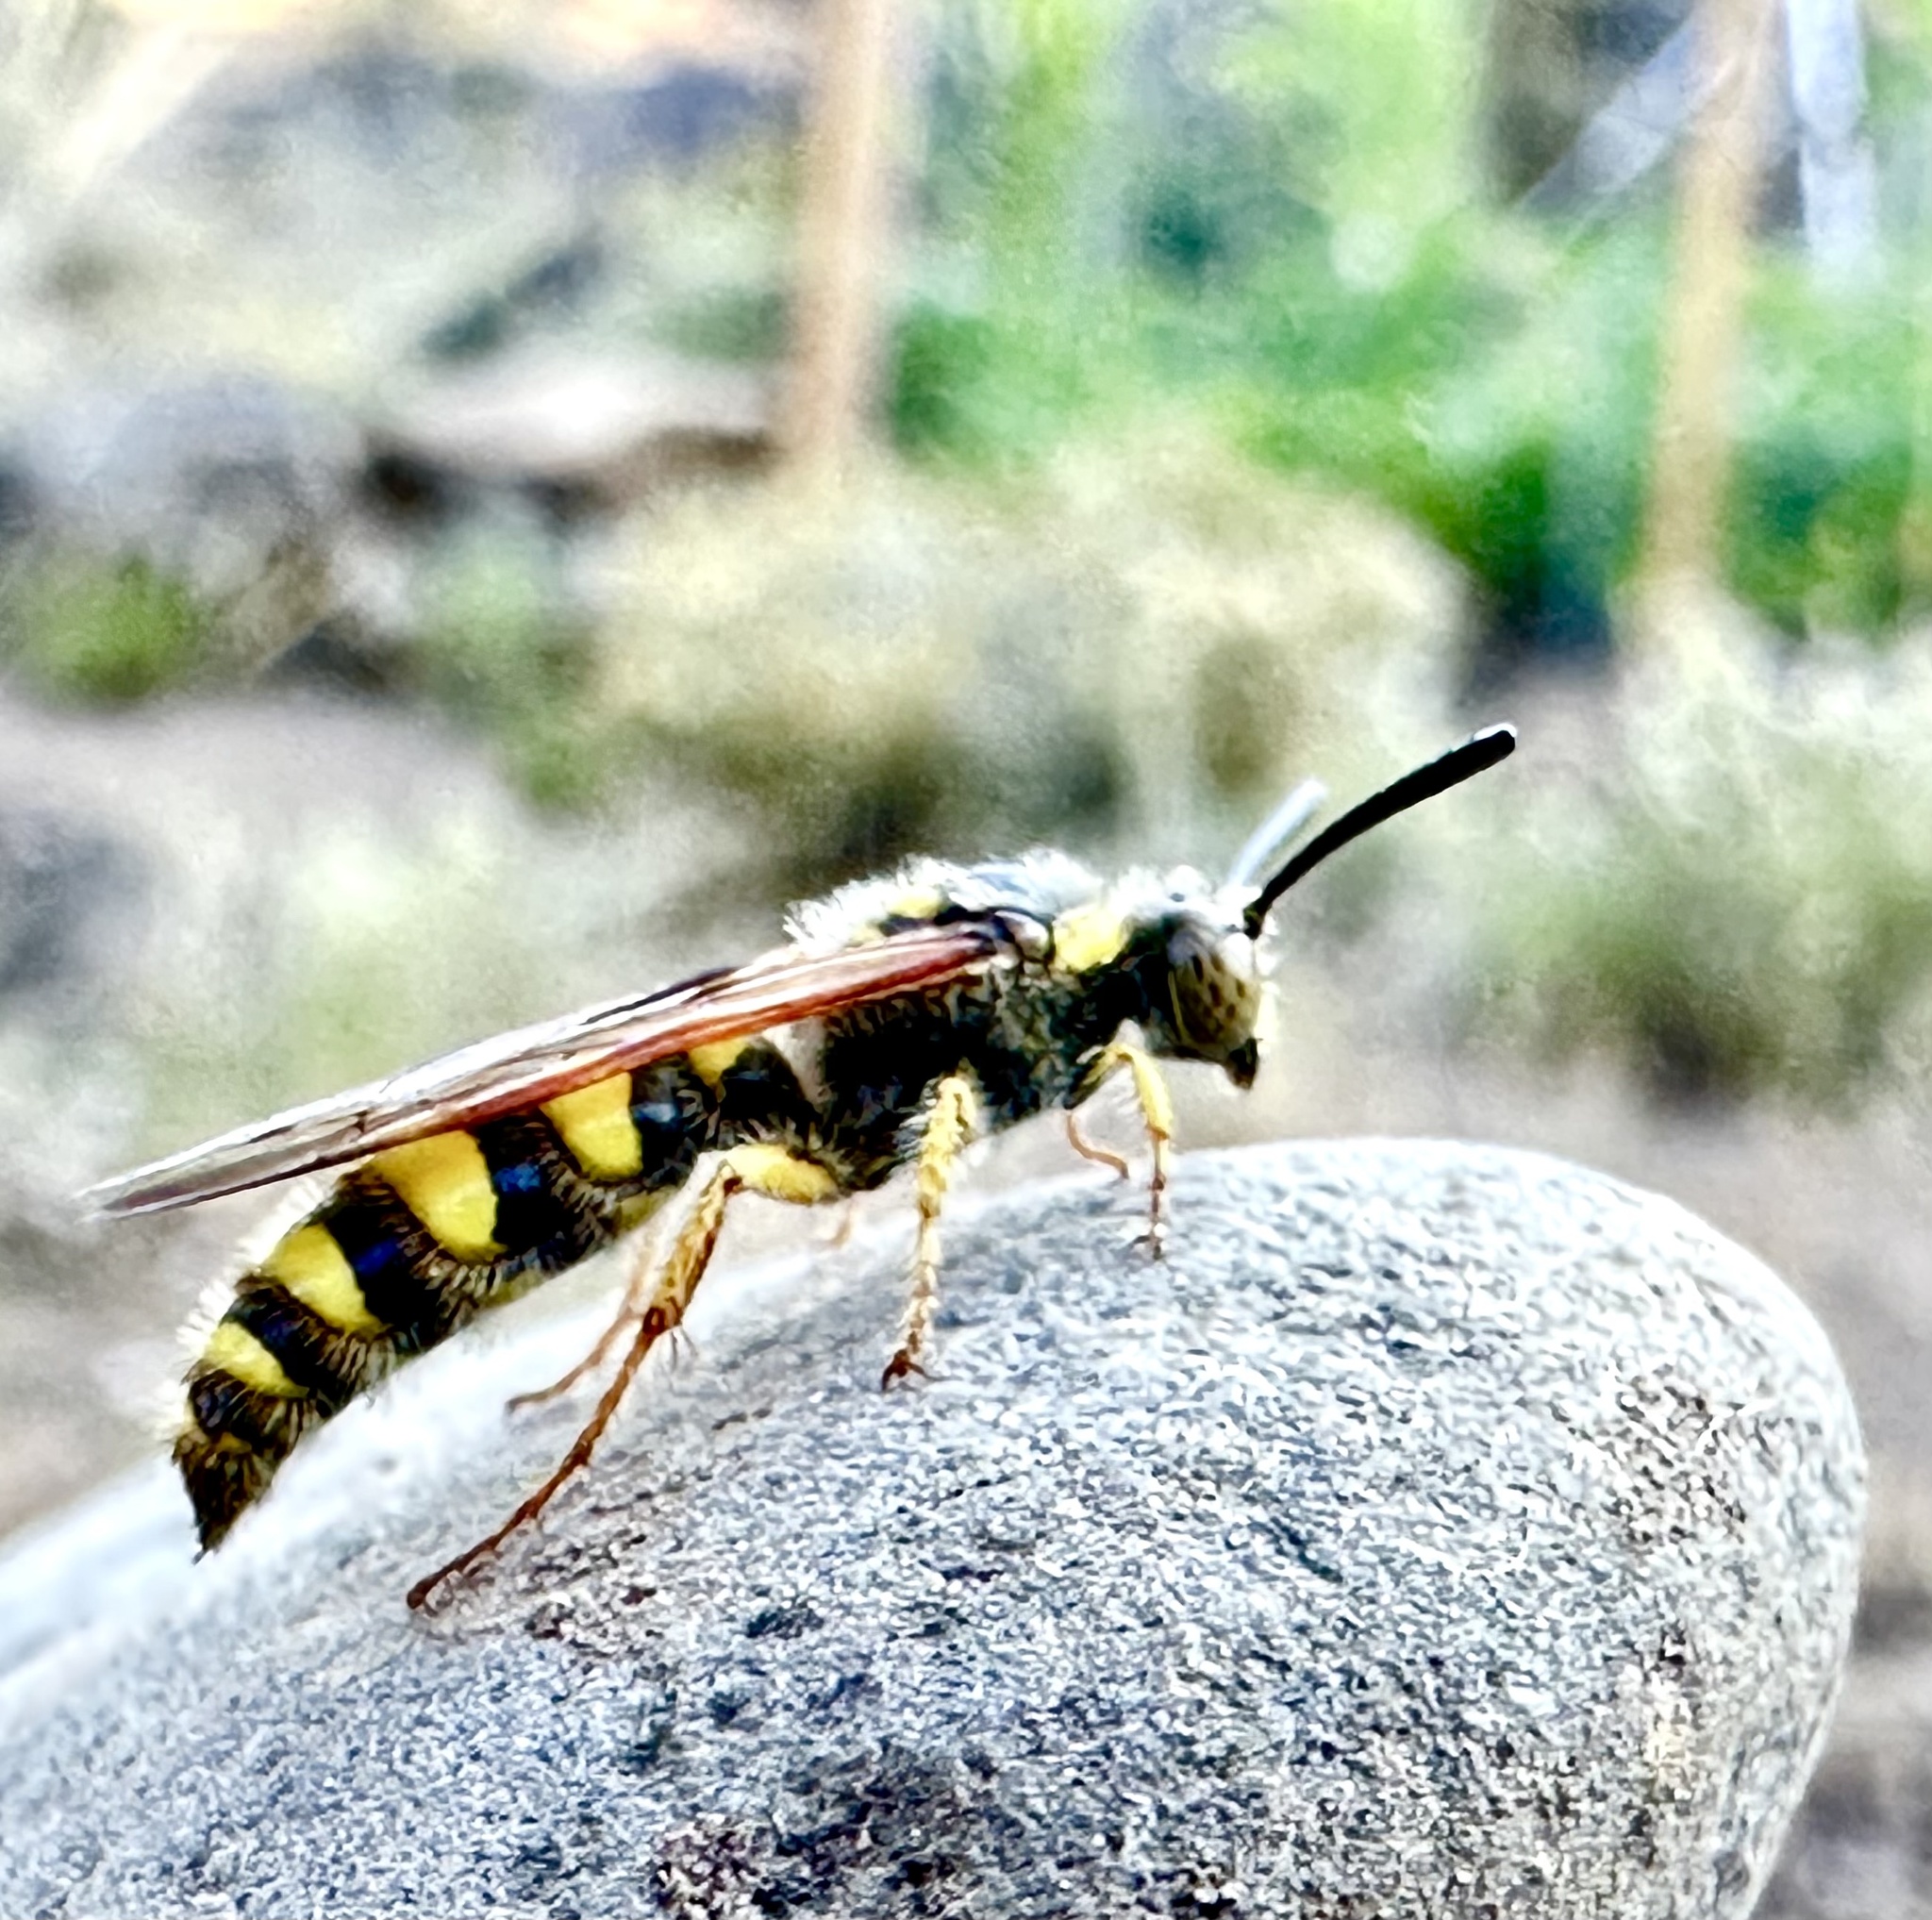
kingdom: Animalia
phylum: Arthropoda
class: Insecta
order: Hymenoptera
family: Sphecidae
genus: Crioscolia
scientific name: Crioscolia
